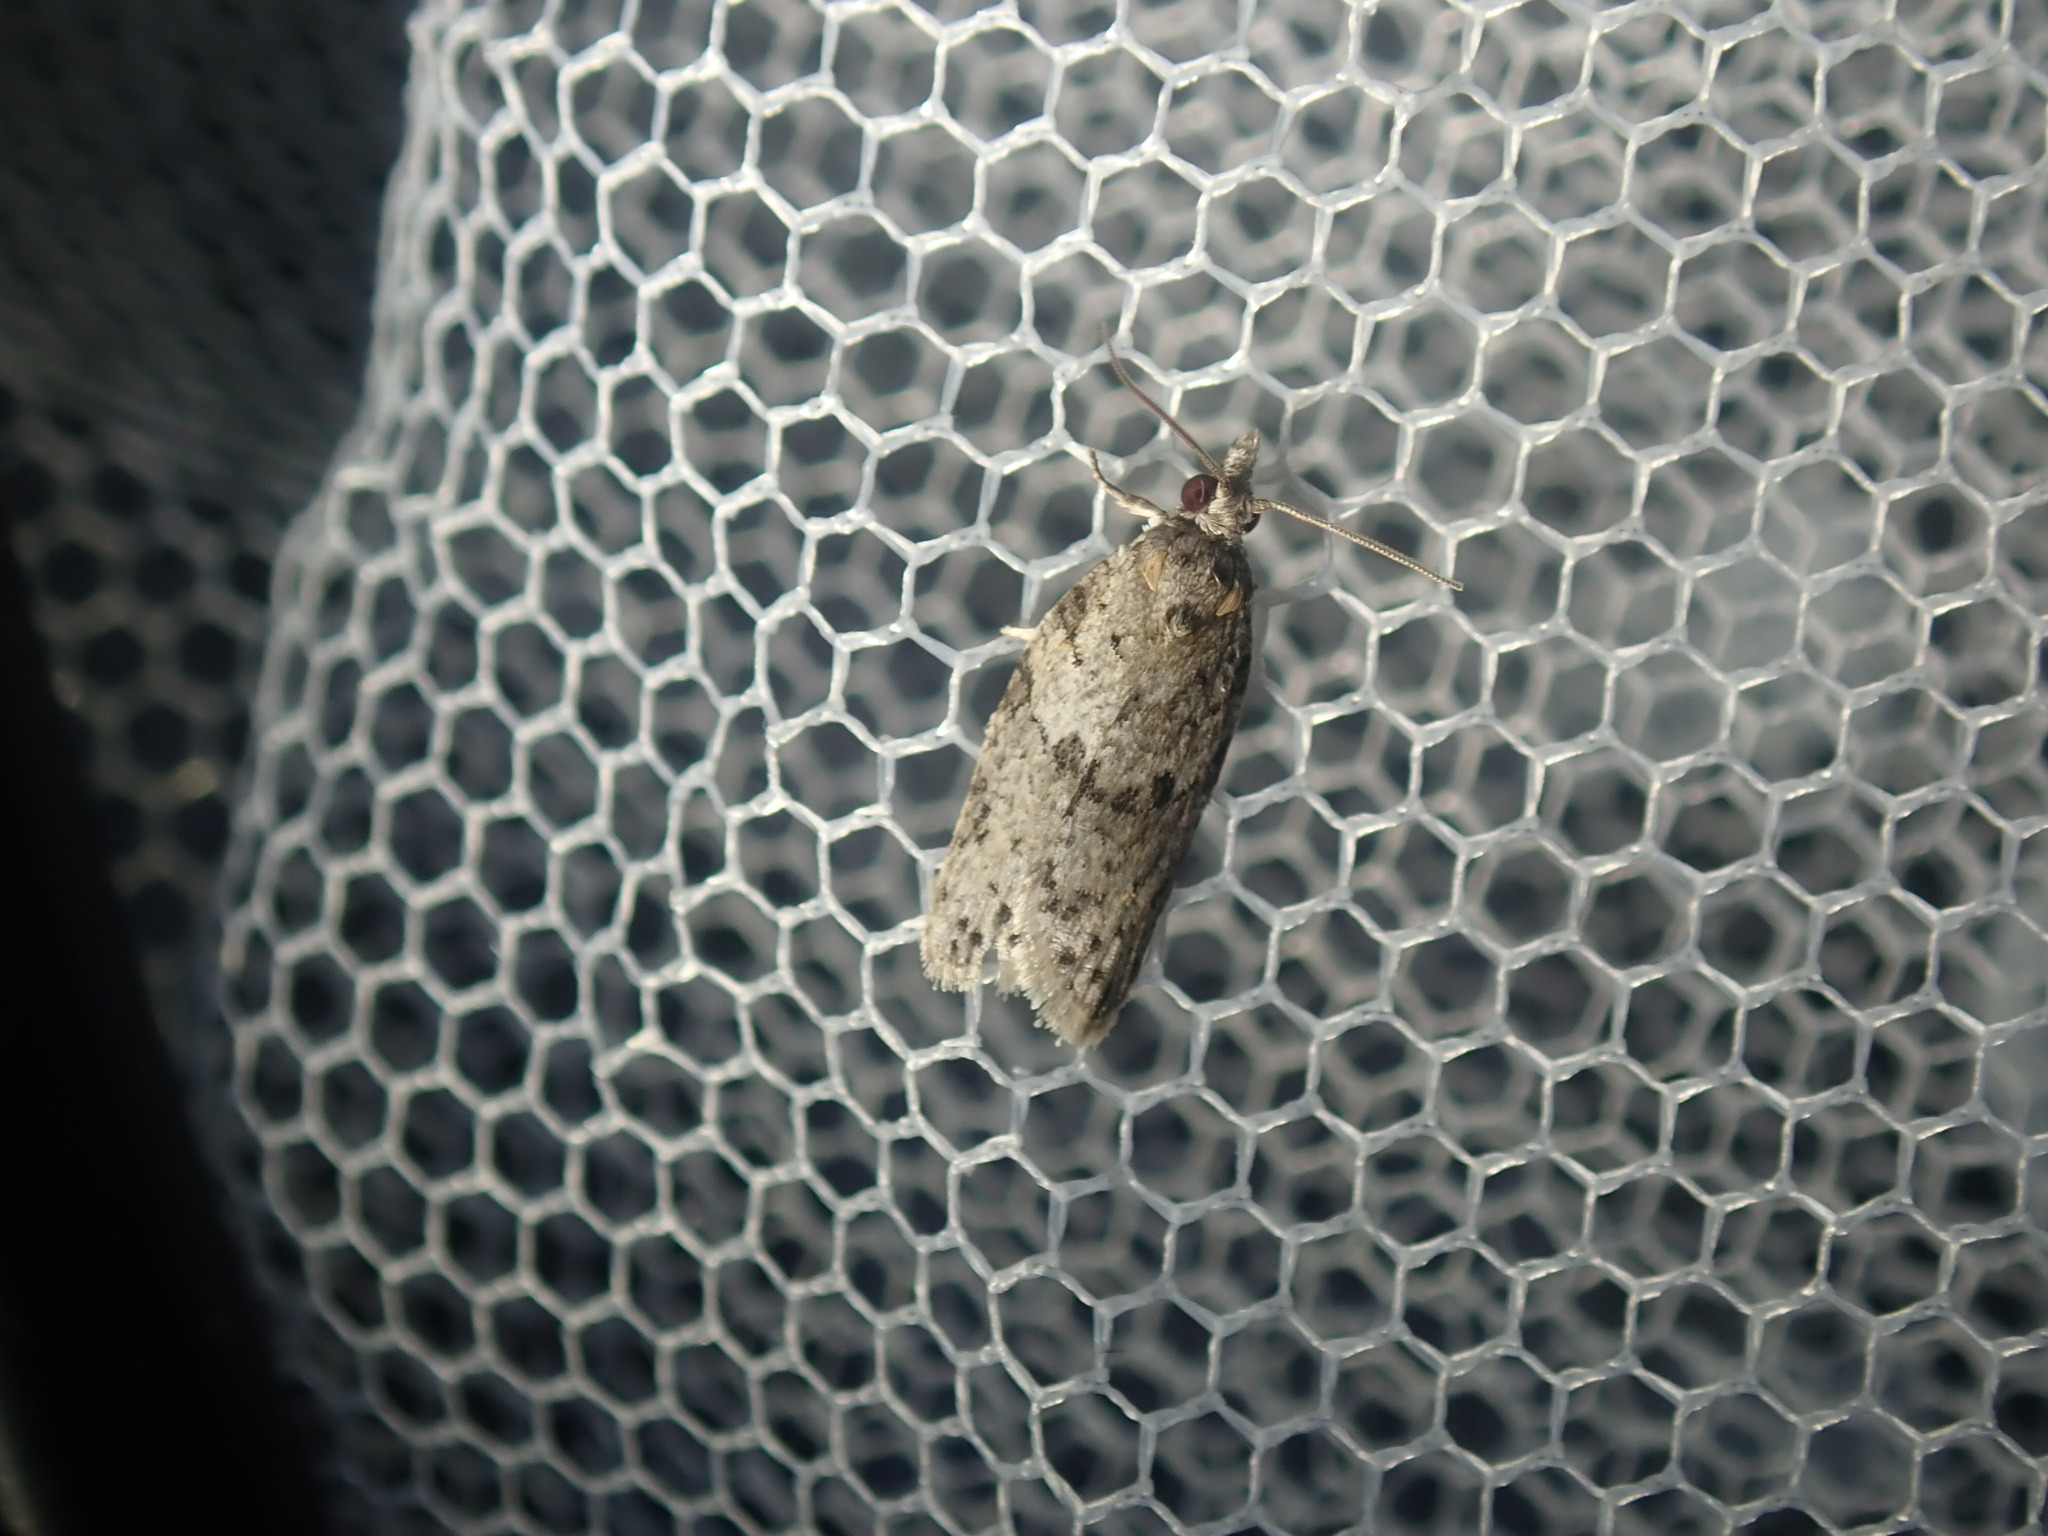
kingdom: Animalia
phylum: Arthropoda
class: Insecta
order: Lepidoptera
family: Tortricidae
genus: Isotenes
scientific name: Isotenes miserana
